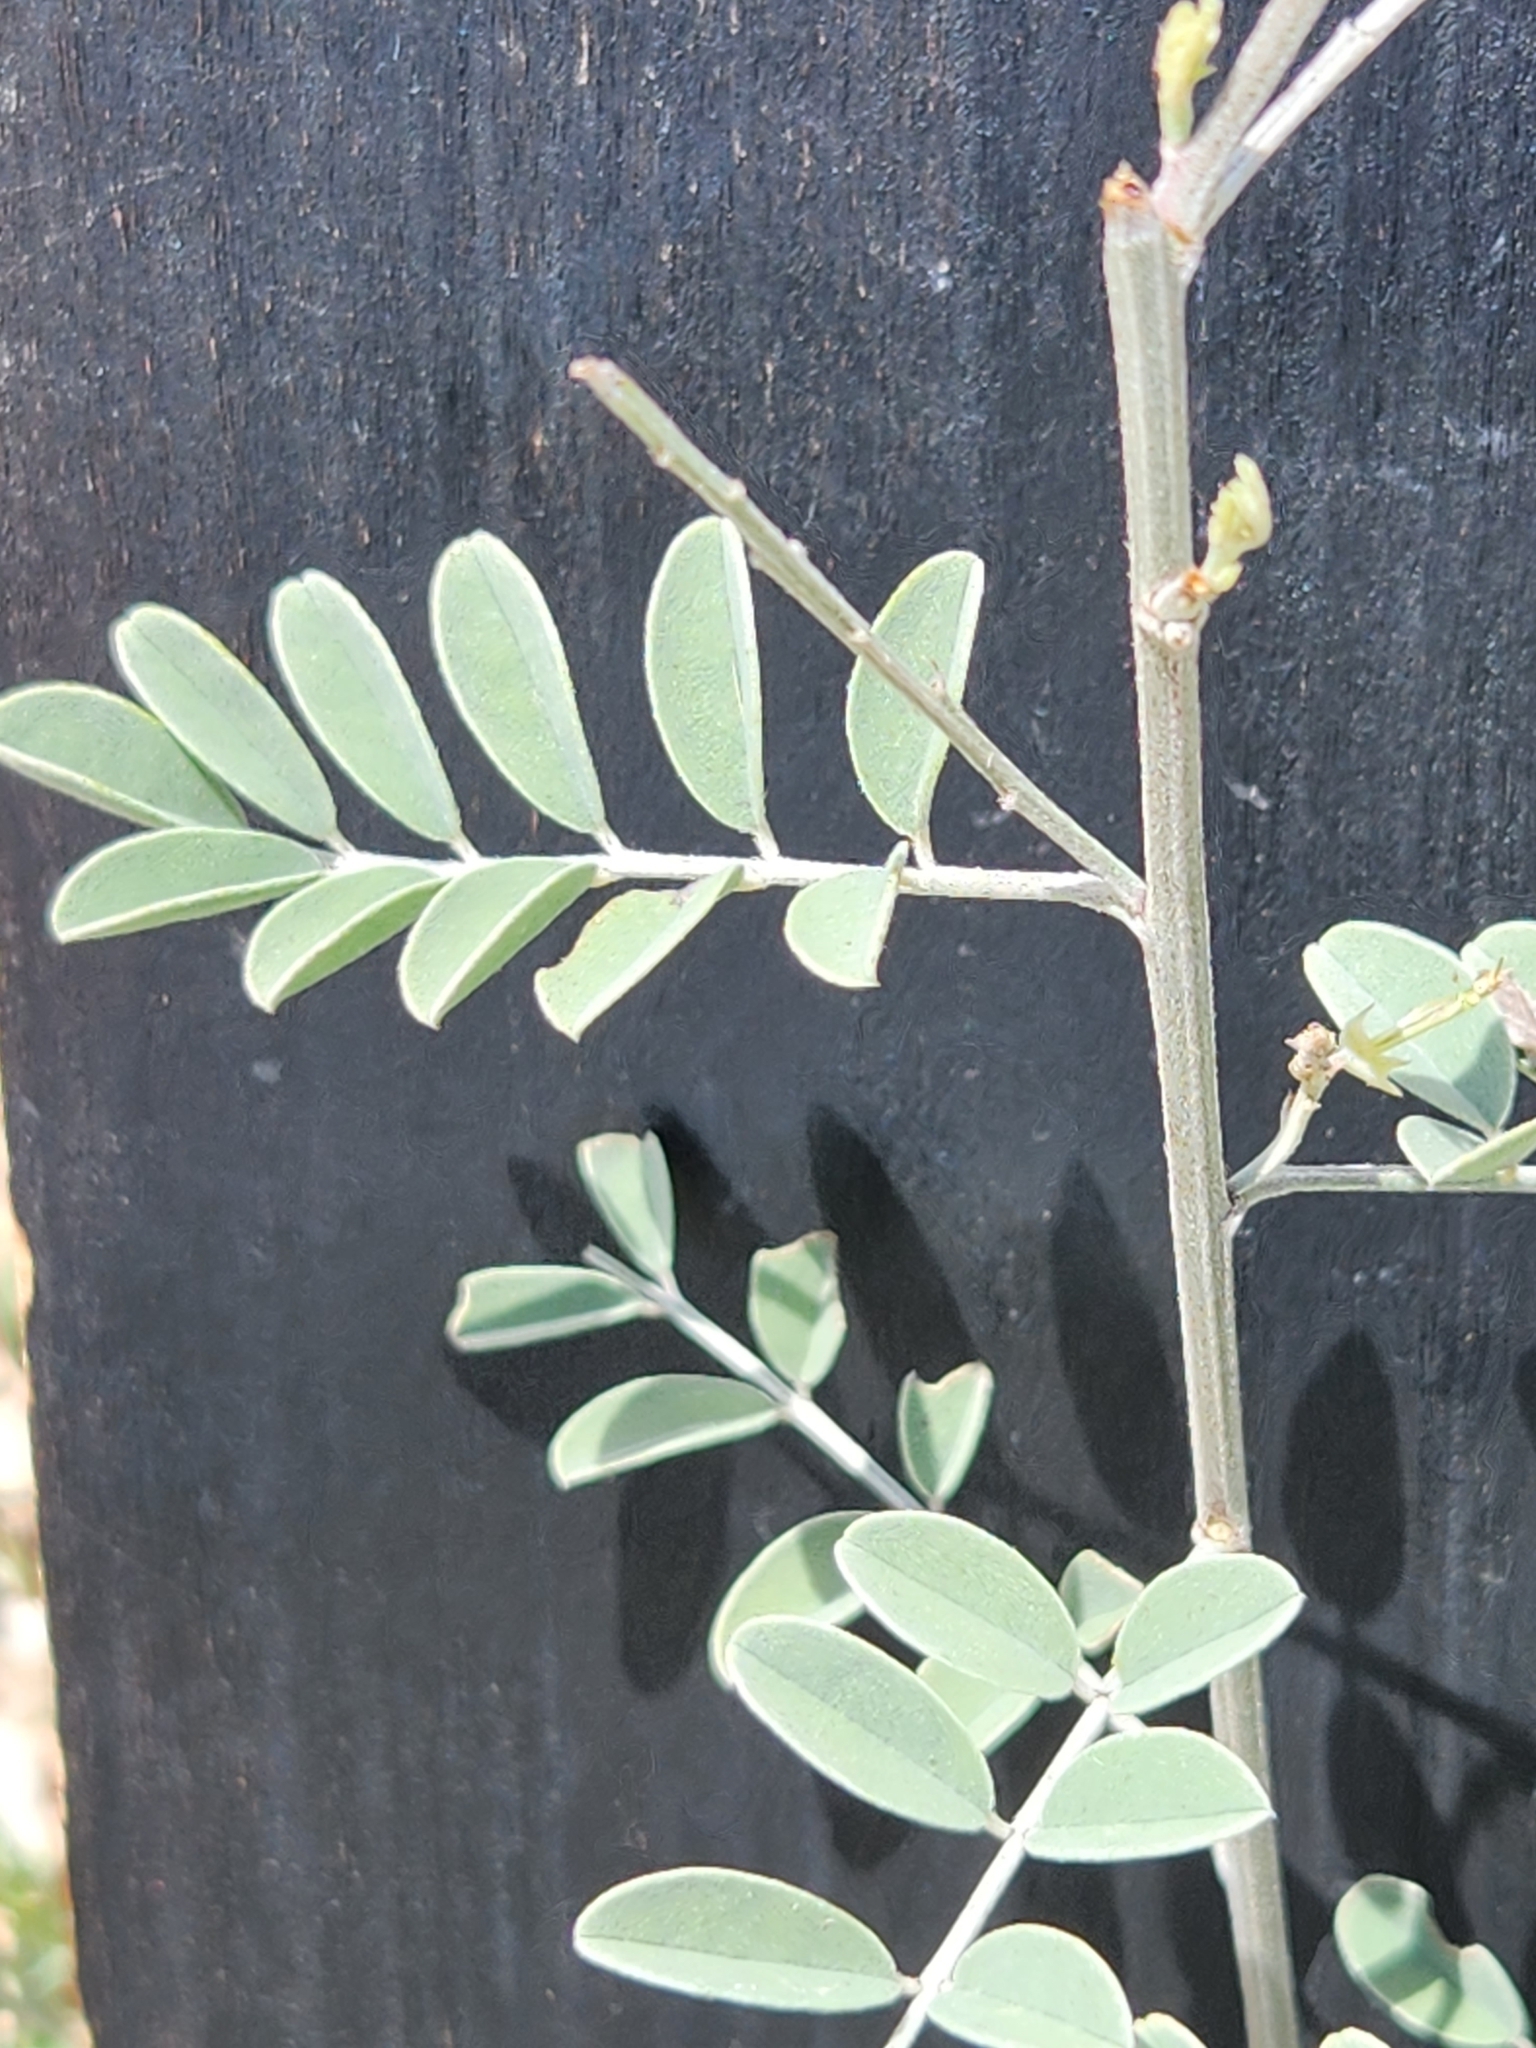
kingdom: Plantae
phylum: Tracheophyta
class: Magnoliopsida
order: Fabales
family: Fabaceae
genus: Indigofera
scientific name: Indigofera lindheimeriana
